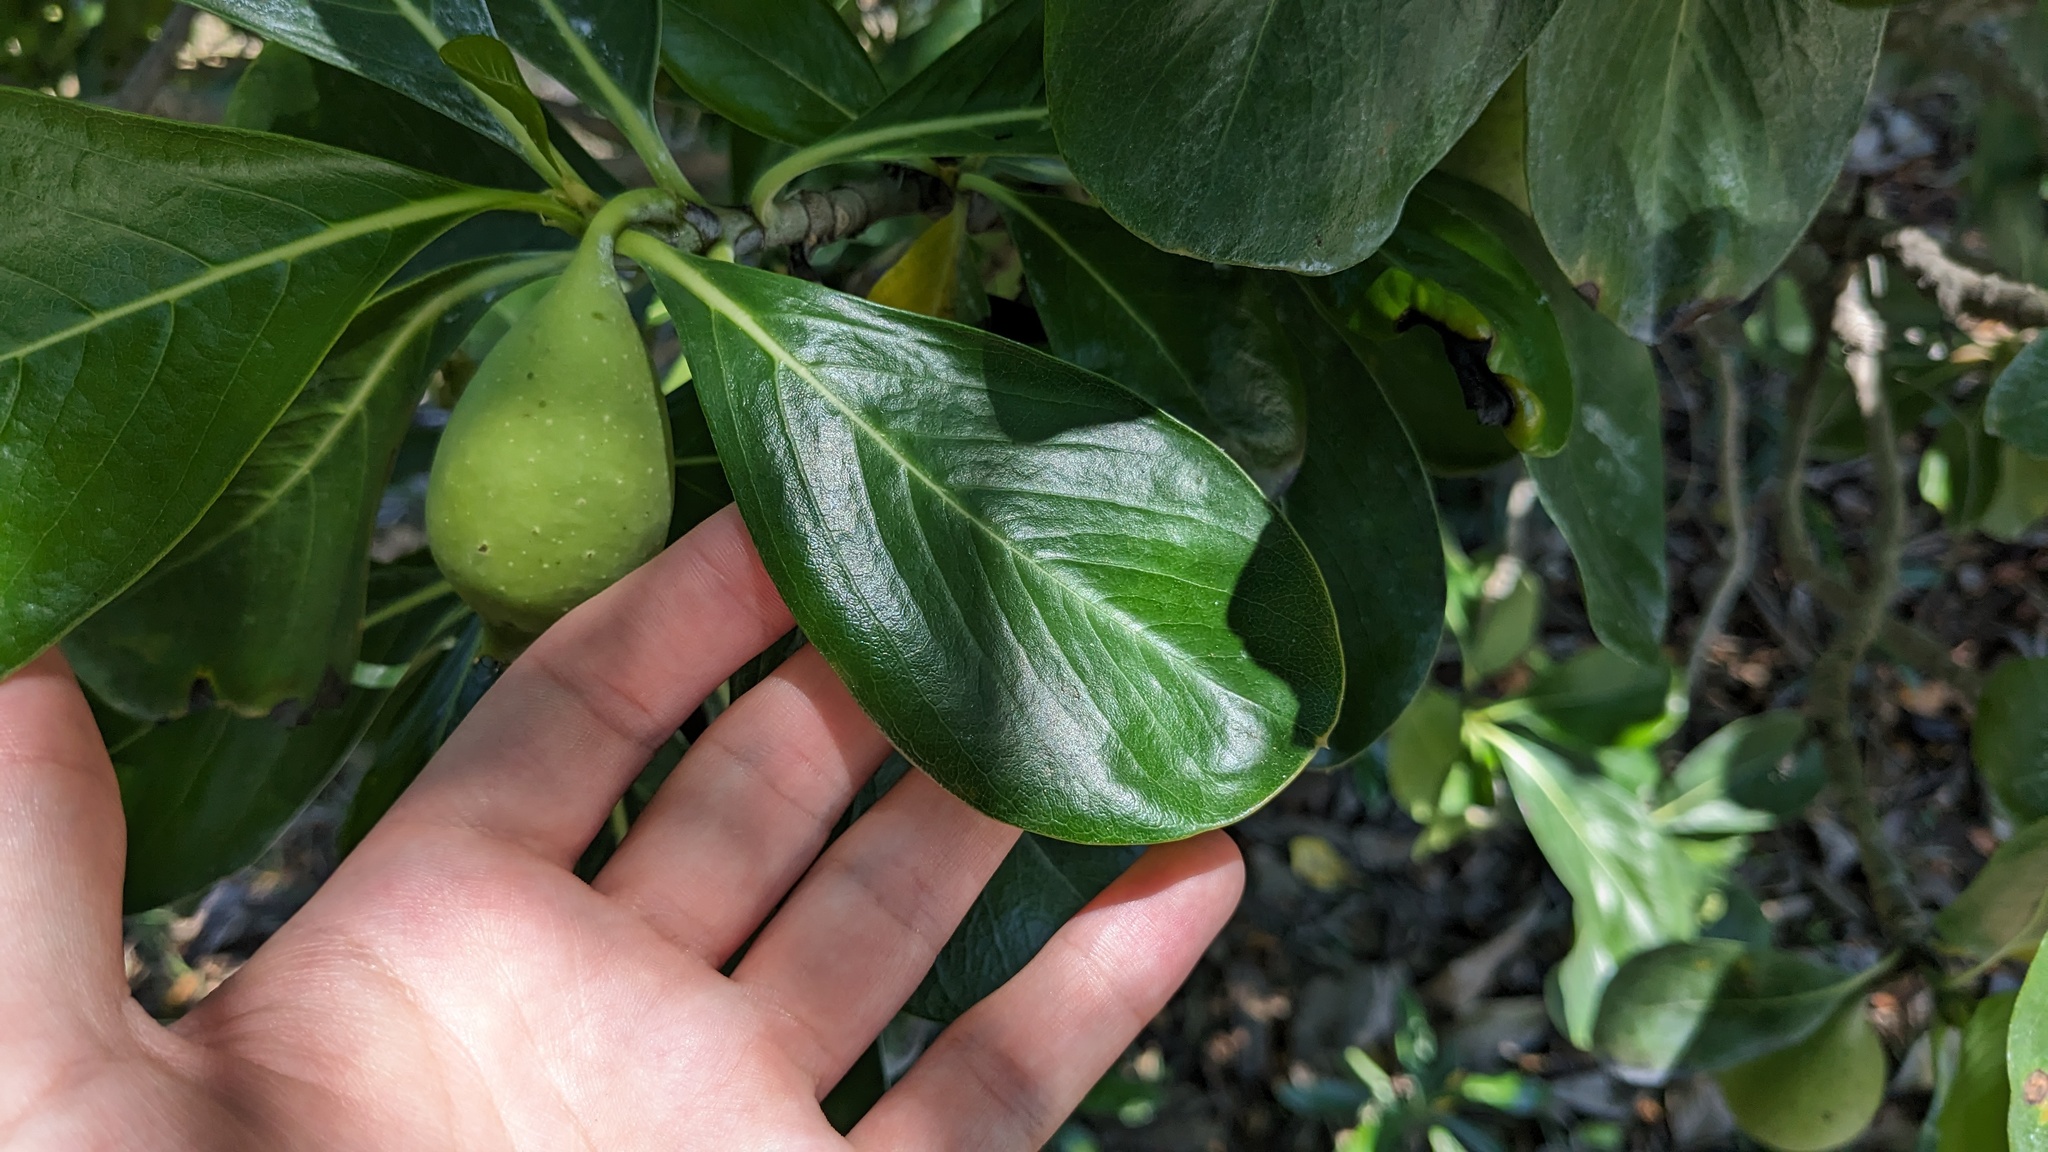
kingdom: Plantae
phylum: Tracheophyta
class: Magnoliopsida
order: Gentianales
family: Rubiaceae
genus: Casasia
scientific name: Casasia clusiifolia
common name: Seven-year apple
